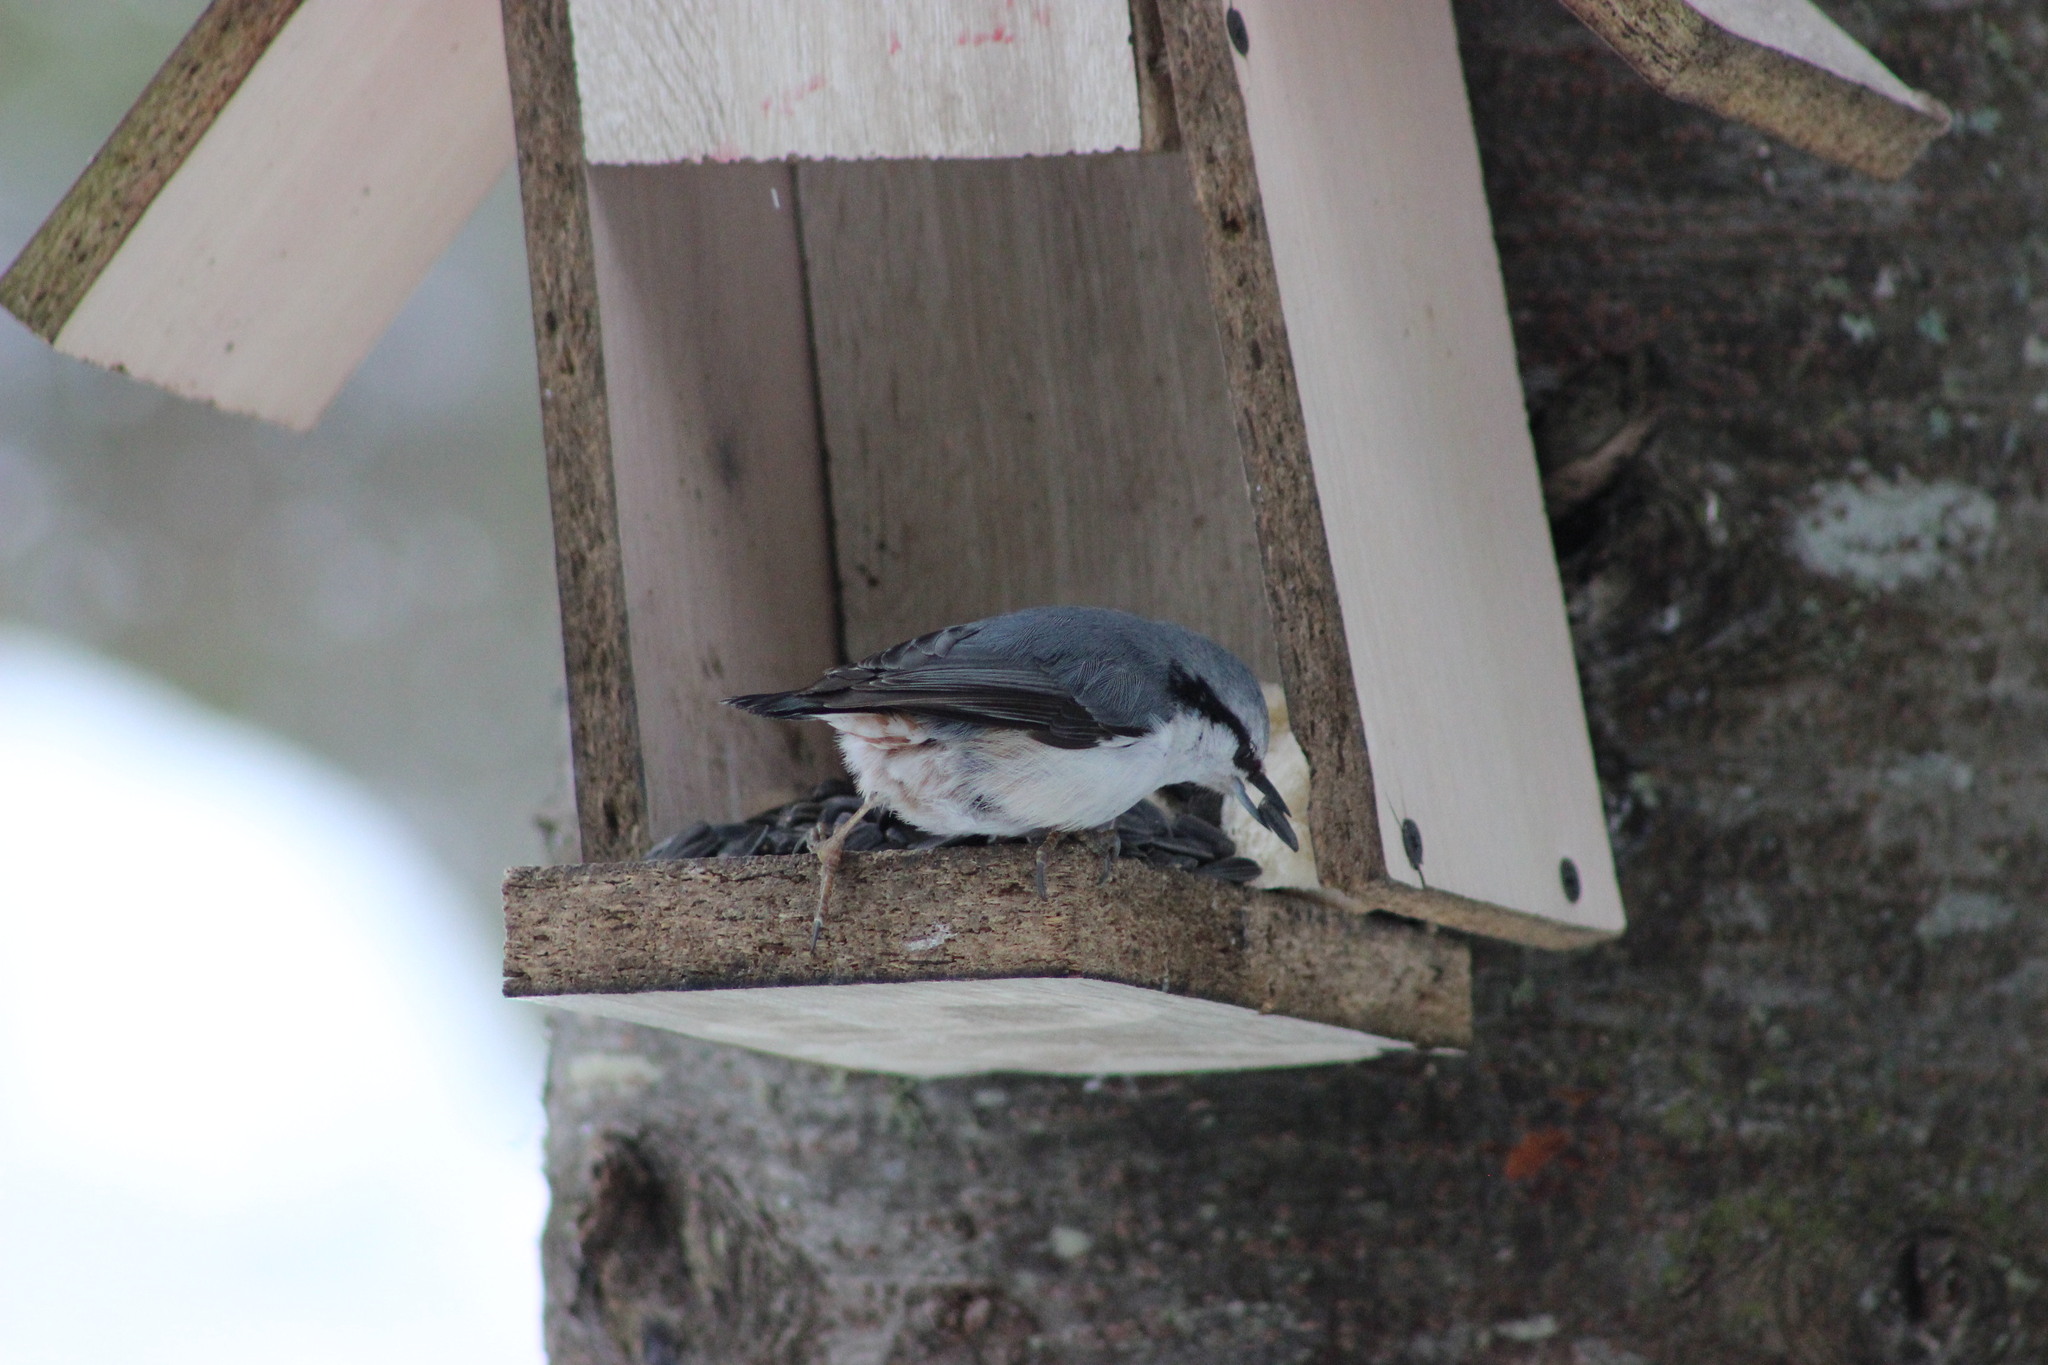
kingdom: Animalia
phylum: Chordata
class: Aves
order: Passeriformes
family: Sittidae
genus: Sitta
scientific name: Sitta europaea
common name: Eurasian nuthatch
